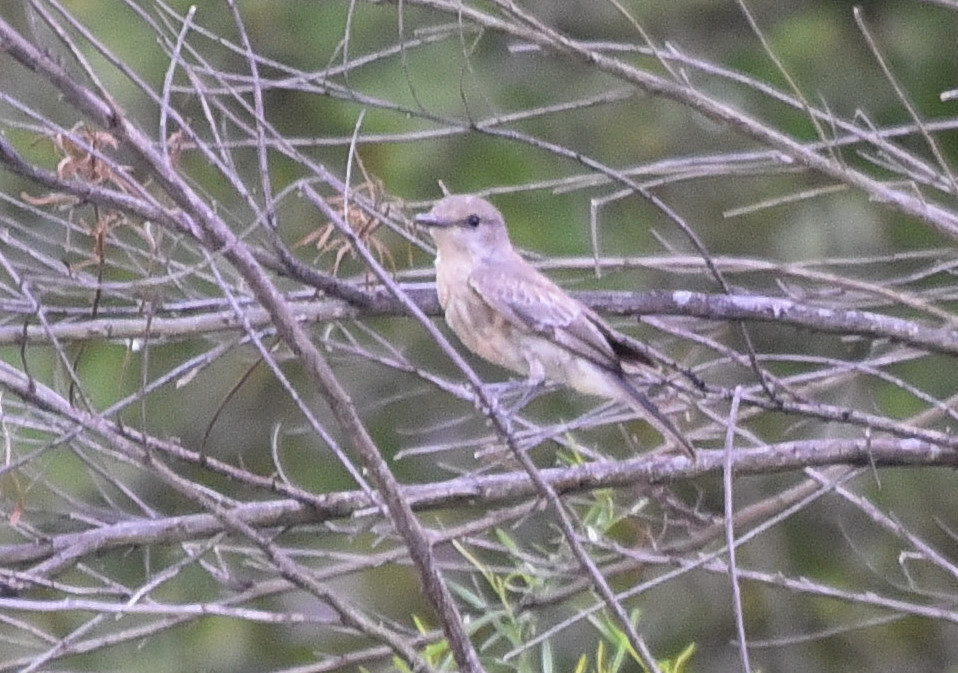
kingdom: Animalia
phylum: Chordata
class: Aves
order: Passeriformes
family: Tyrannidae
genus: Pyrocephalus
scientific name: Pyrocephalus rubinus
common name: Vermilion flycatcher
